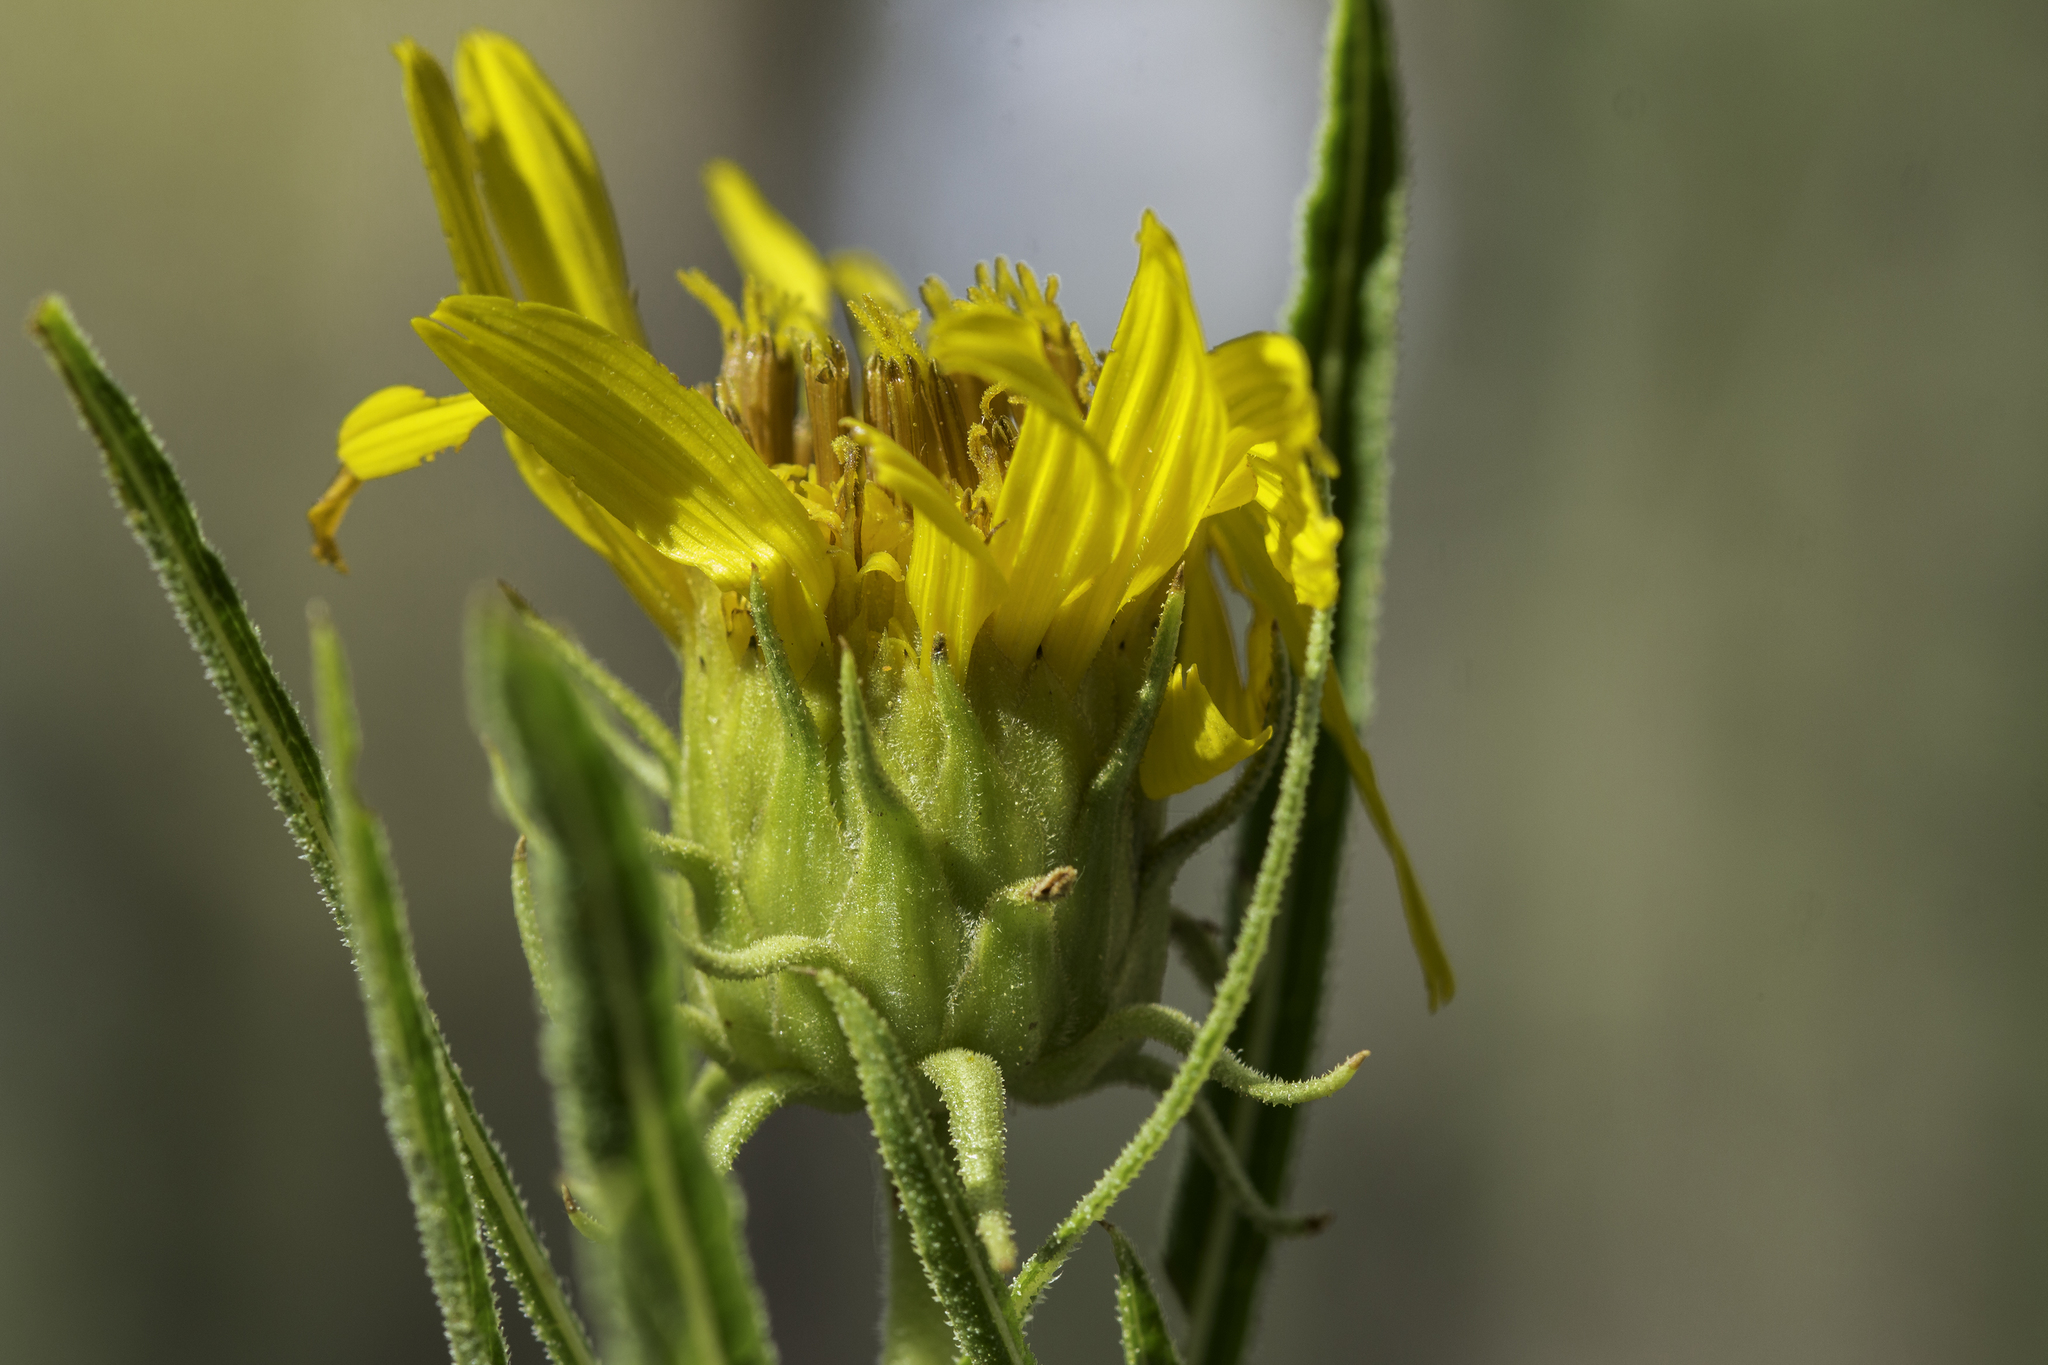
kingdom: Plantae
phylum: Tracheophyta
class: Magnoliopsida
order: Asterales
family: Asteraceae
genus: Scabrethia
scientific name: Scabrethia scabra
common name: Rough mules's-ears
